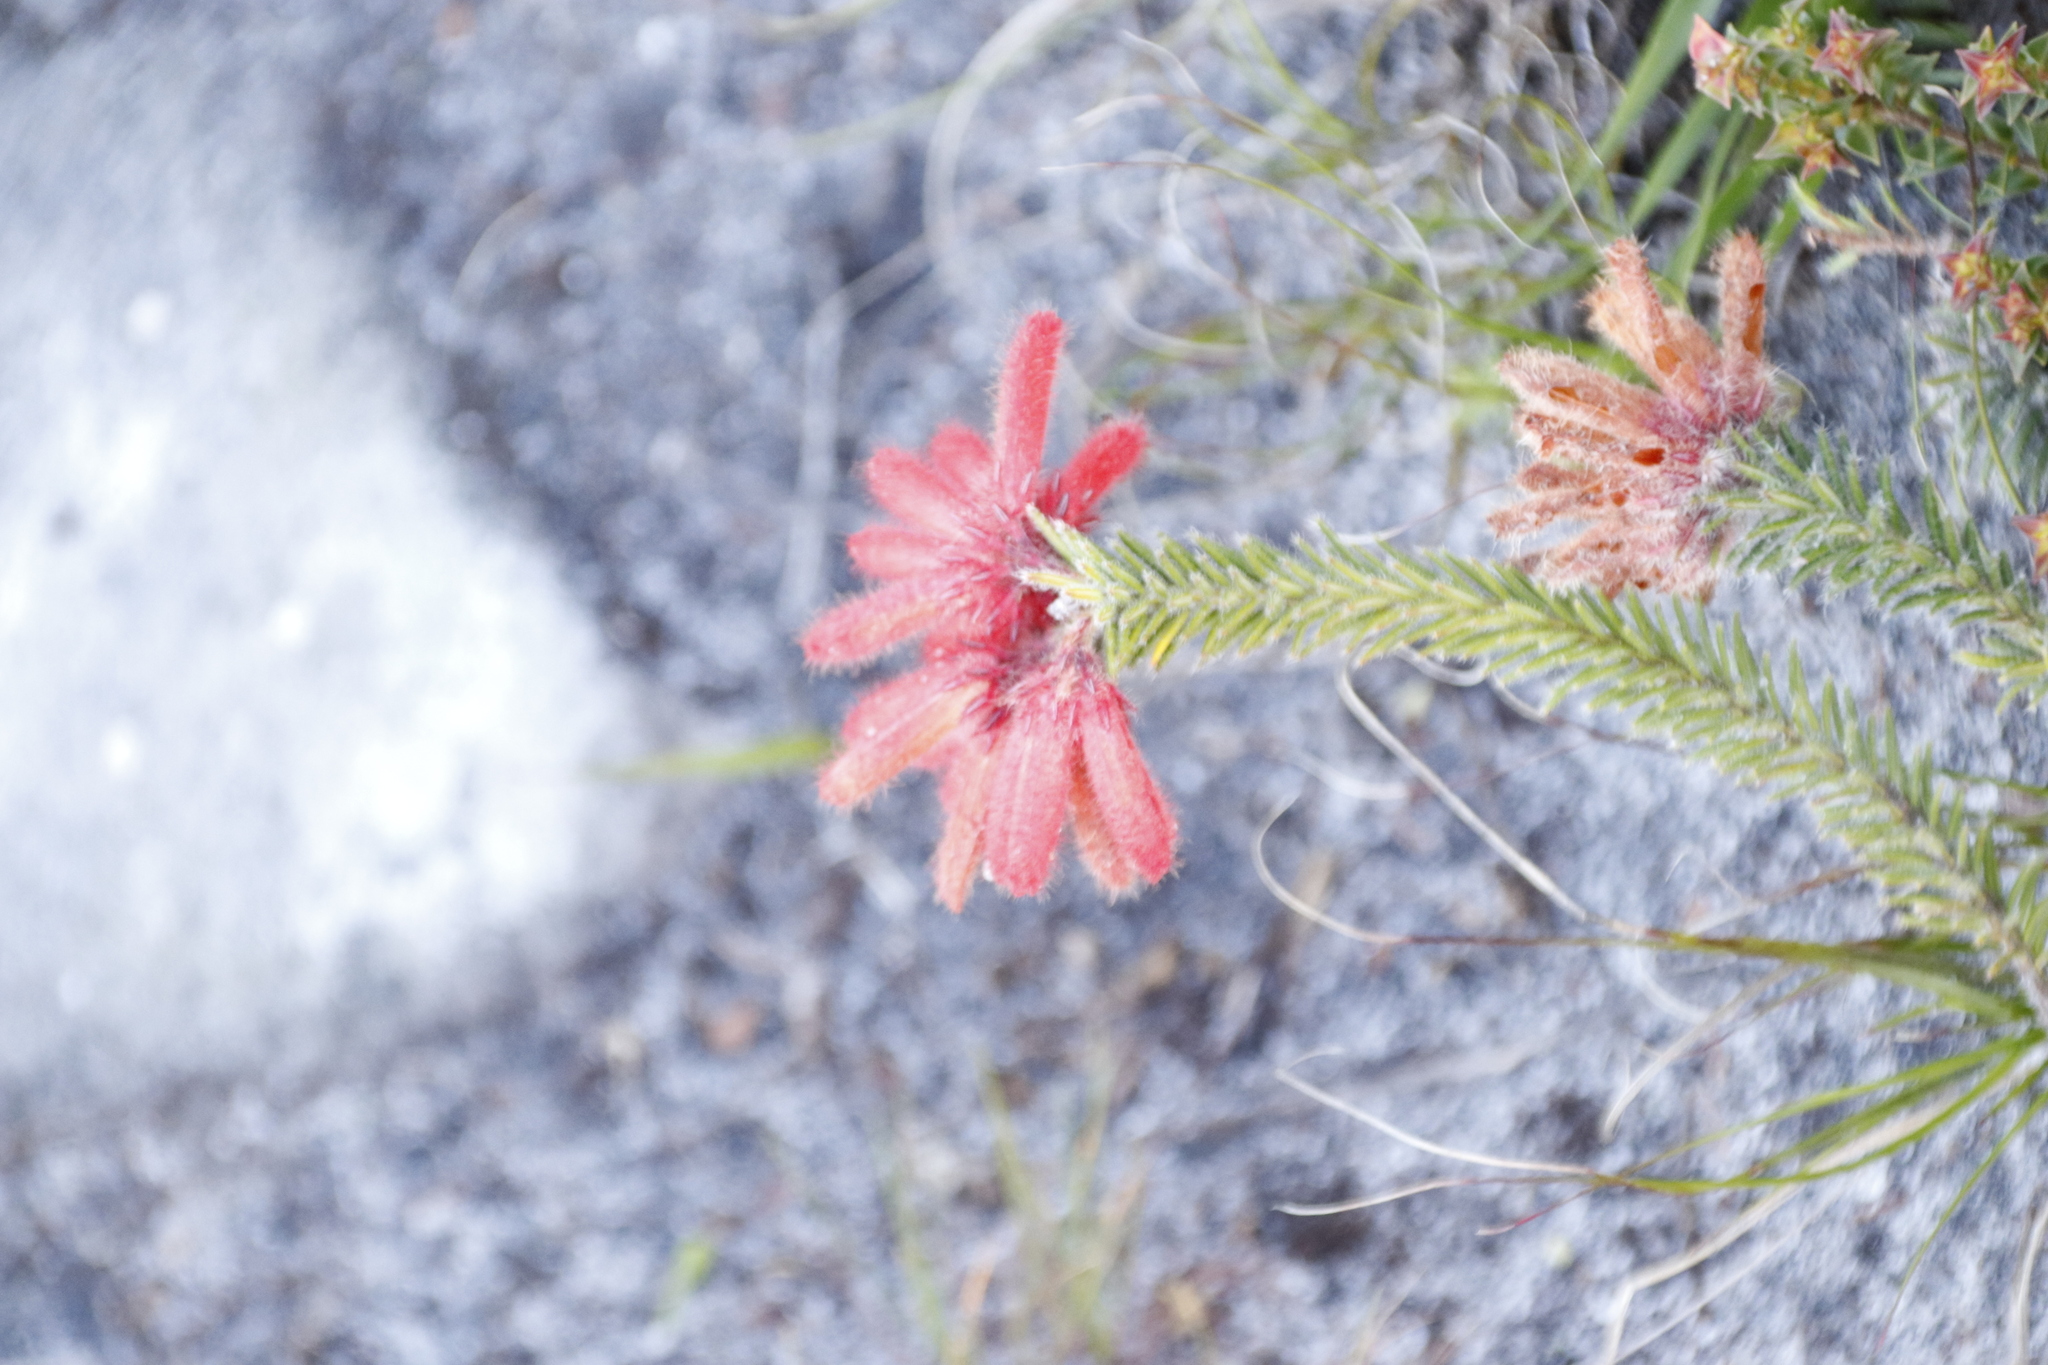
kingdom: Plantae
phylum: Tracheophyta
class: Magnoliopsida
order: Ericales
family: Ericaceae
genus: Erica
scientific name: Erica cerinthoides
